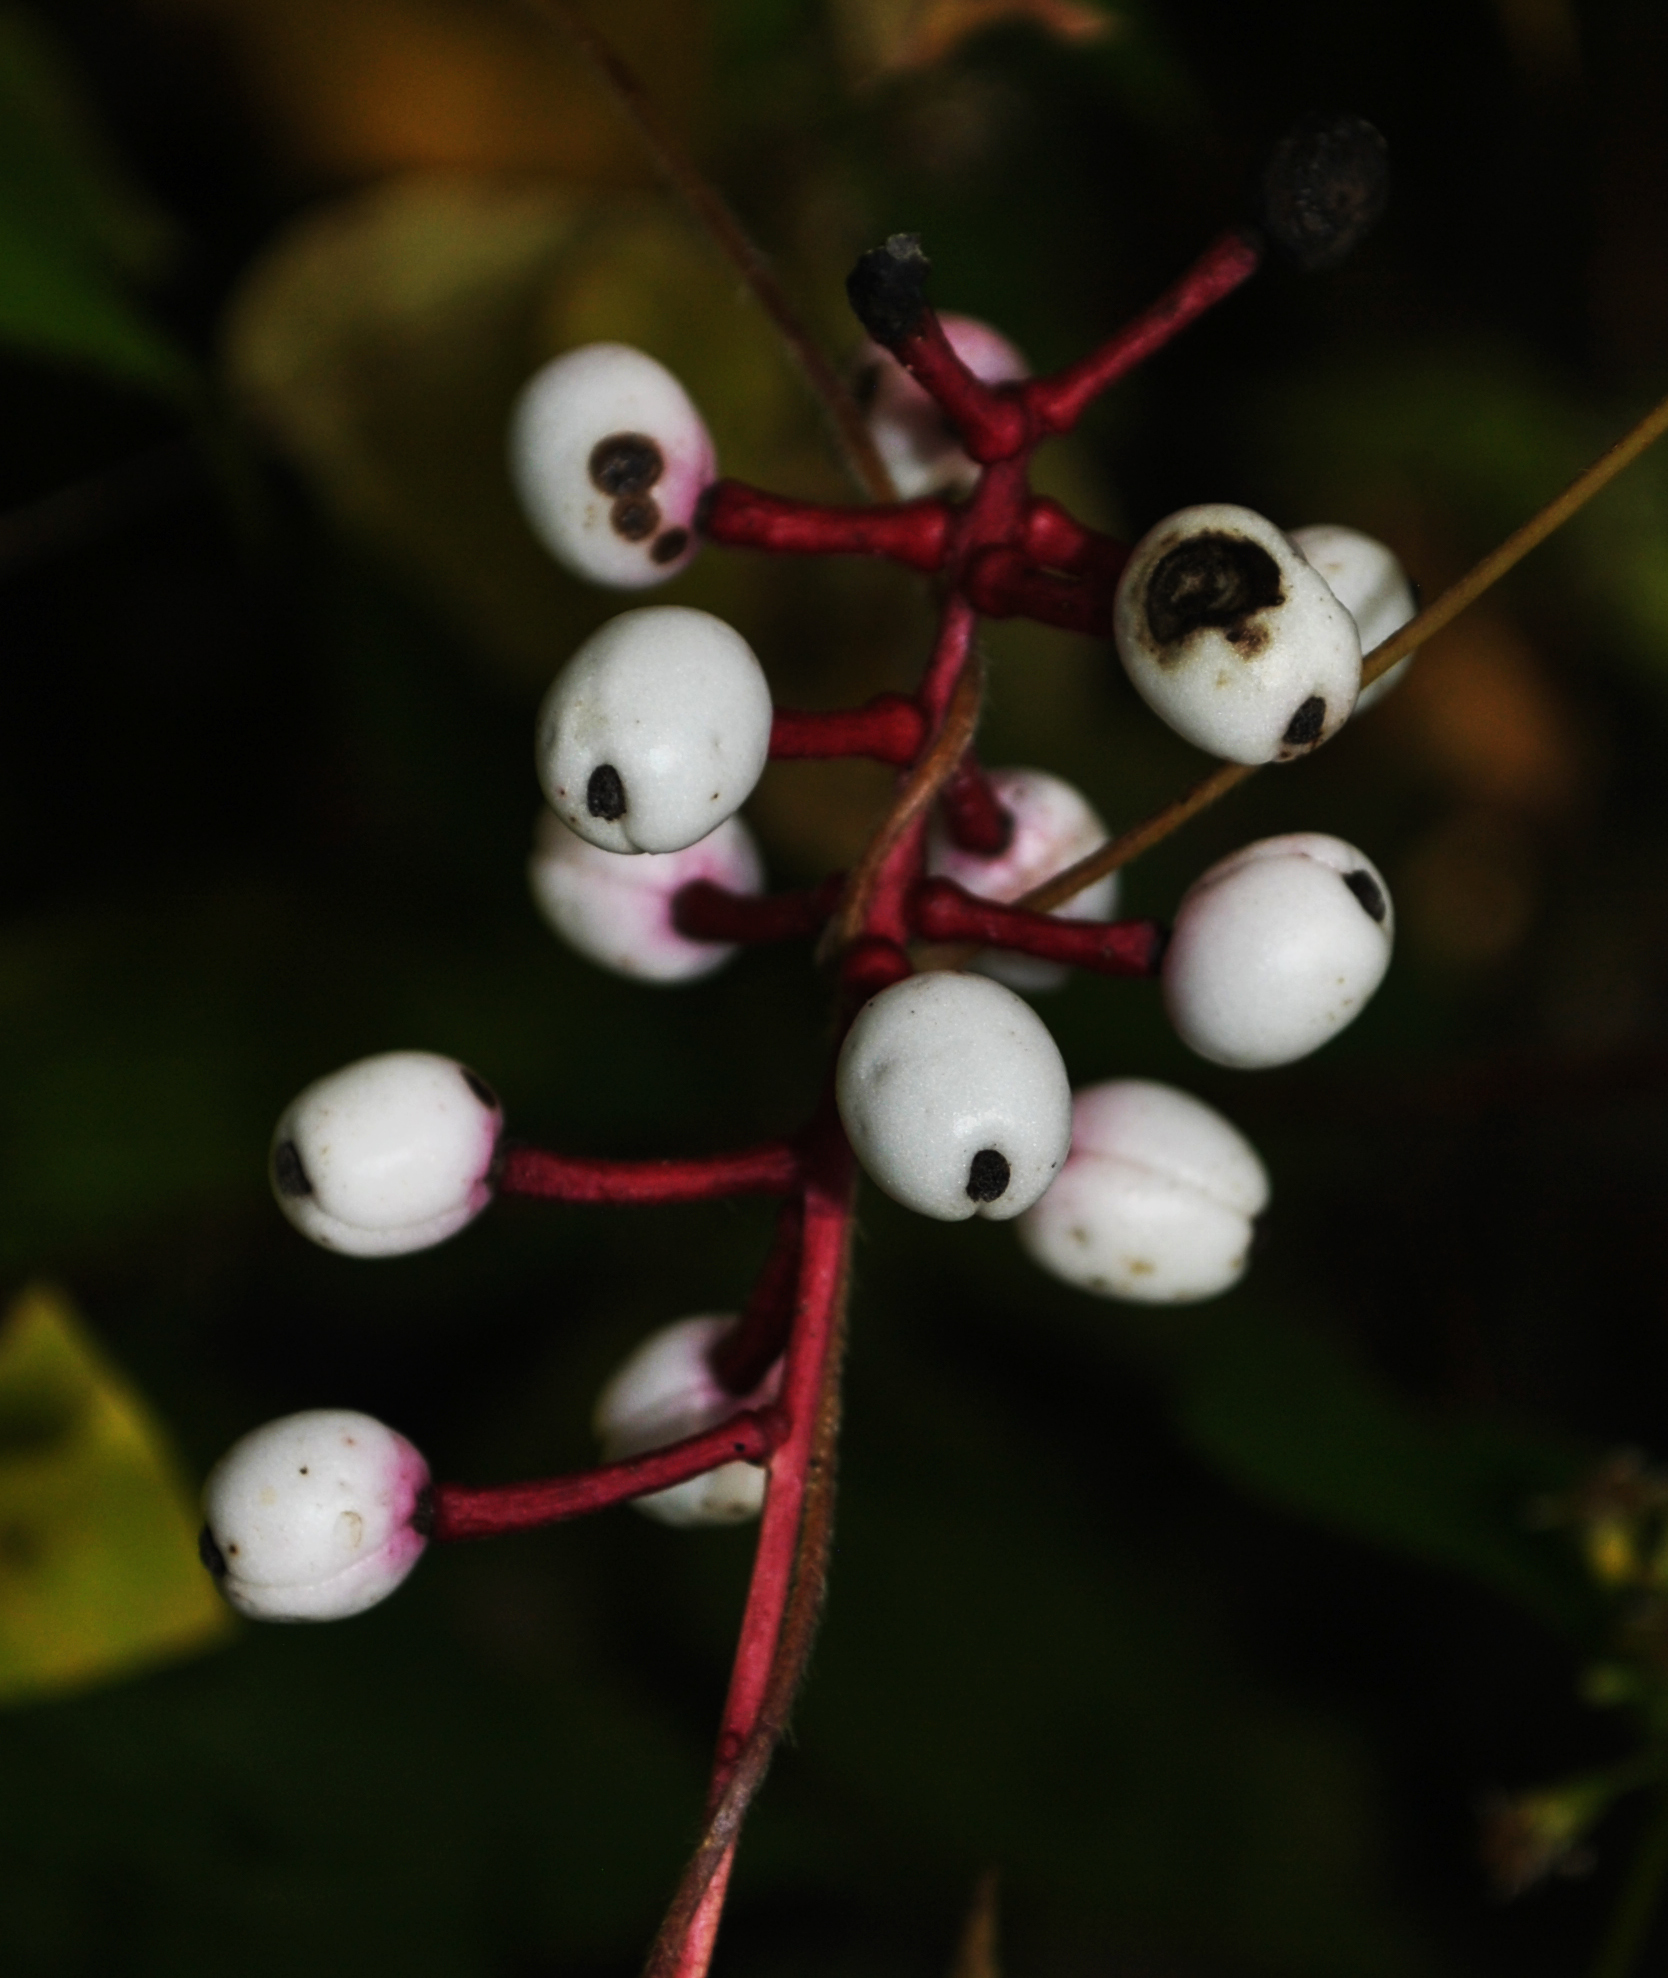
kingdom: Plantae
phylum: Tracheophyta
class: Magnoliopsida
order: Ranunculales
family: Ranunculaceae
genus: Actaea
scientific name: Actaea pachypoda
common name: Doll's-eyes
